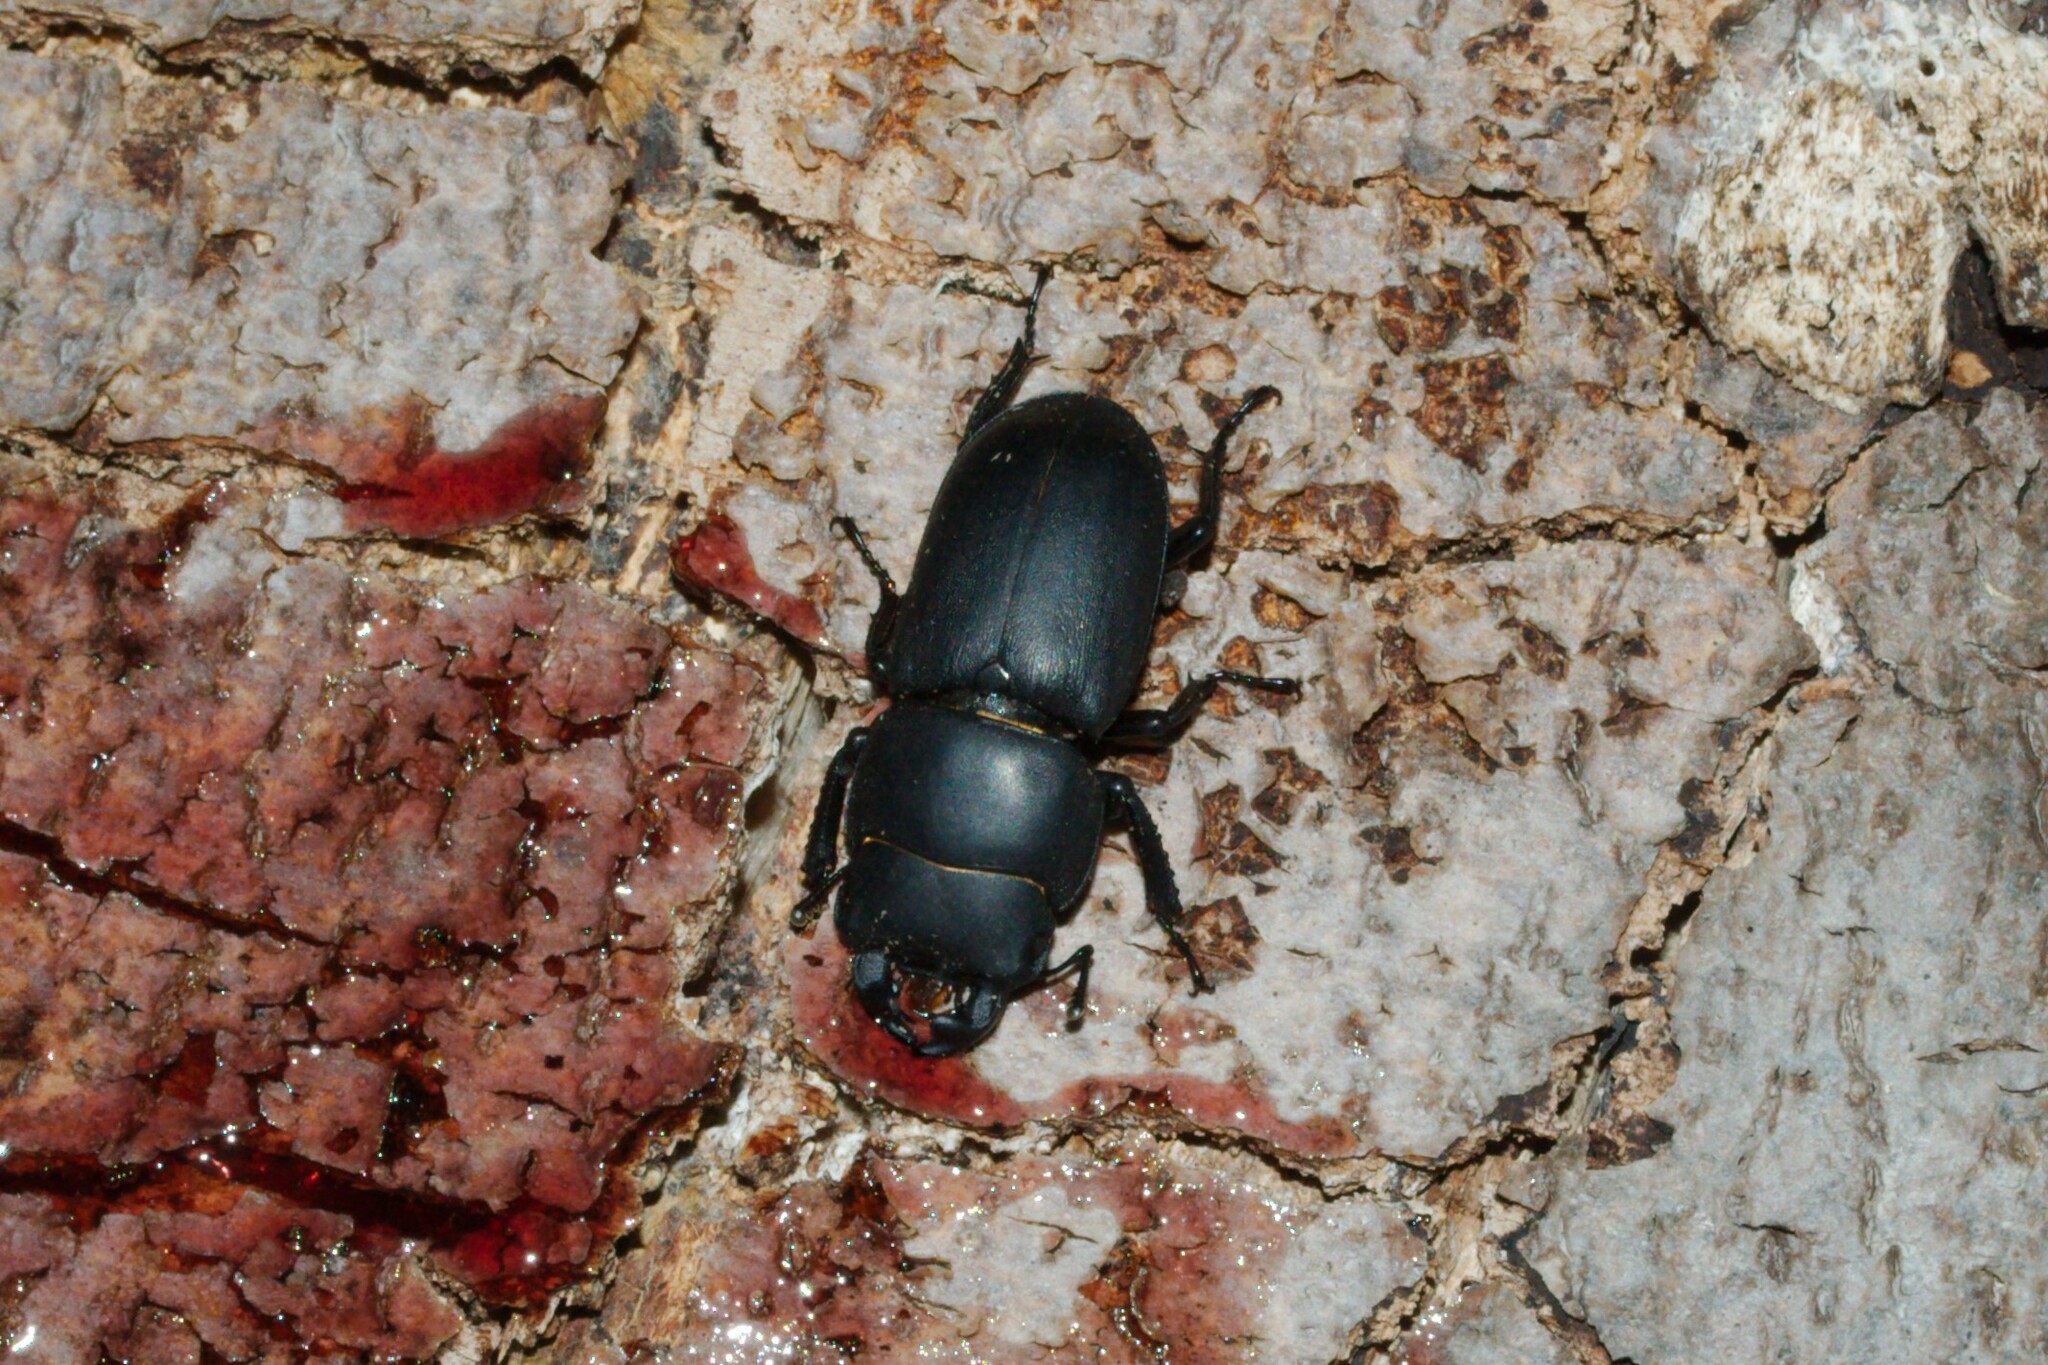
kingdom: Animalia
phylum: Arthropoda
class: Insecta
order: Coleoptera
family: Lucanidae
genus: Dorcus
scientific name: Dorcus parallelipipedus
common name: Lesser stag beetle
